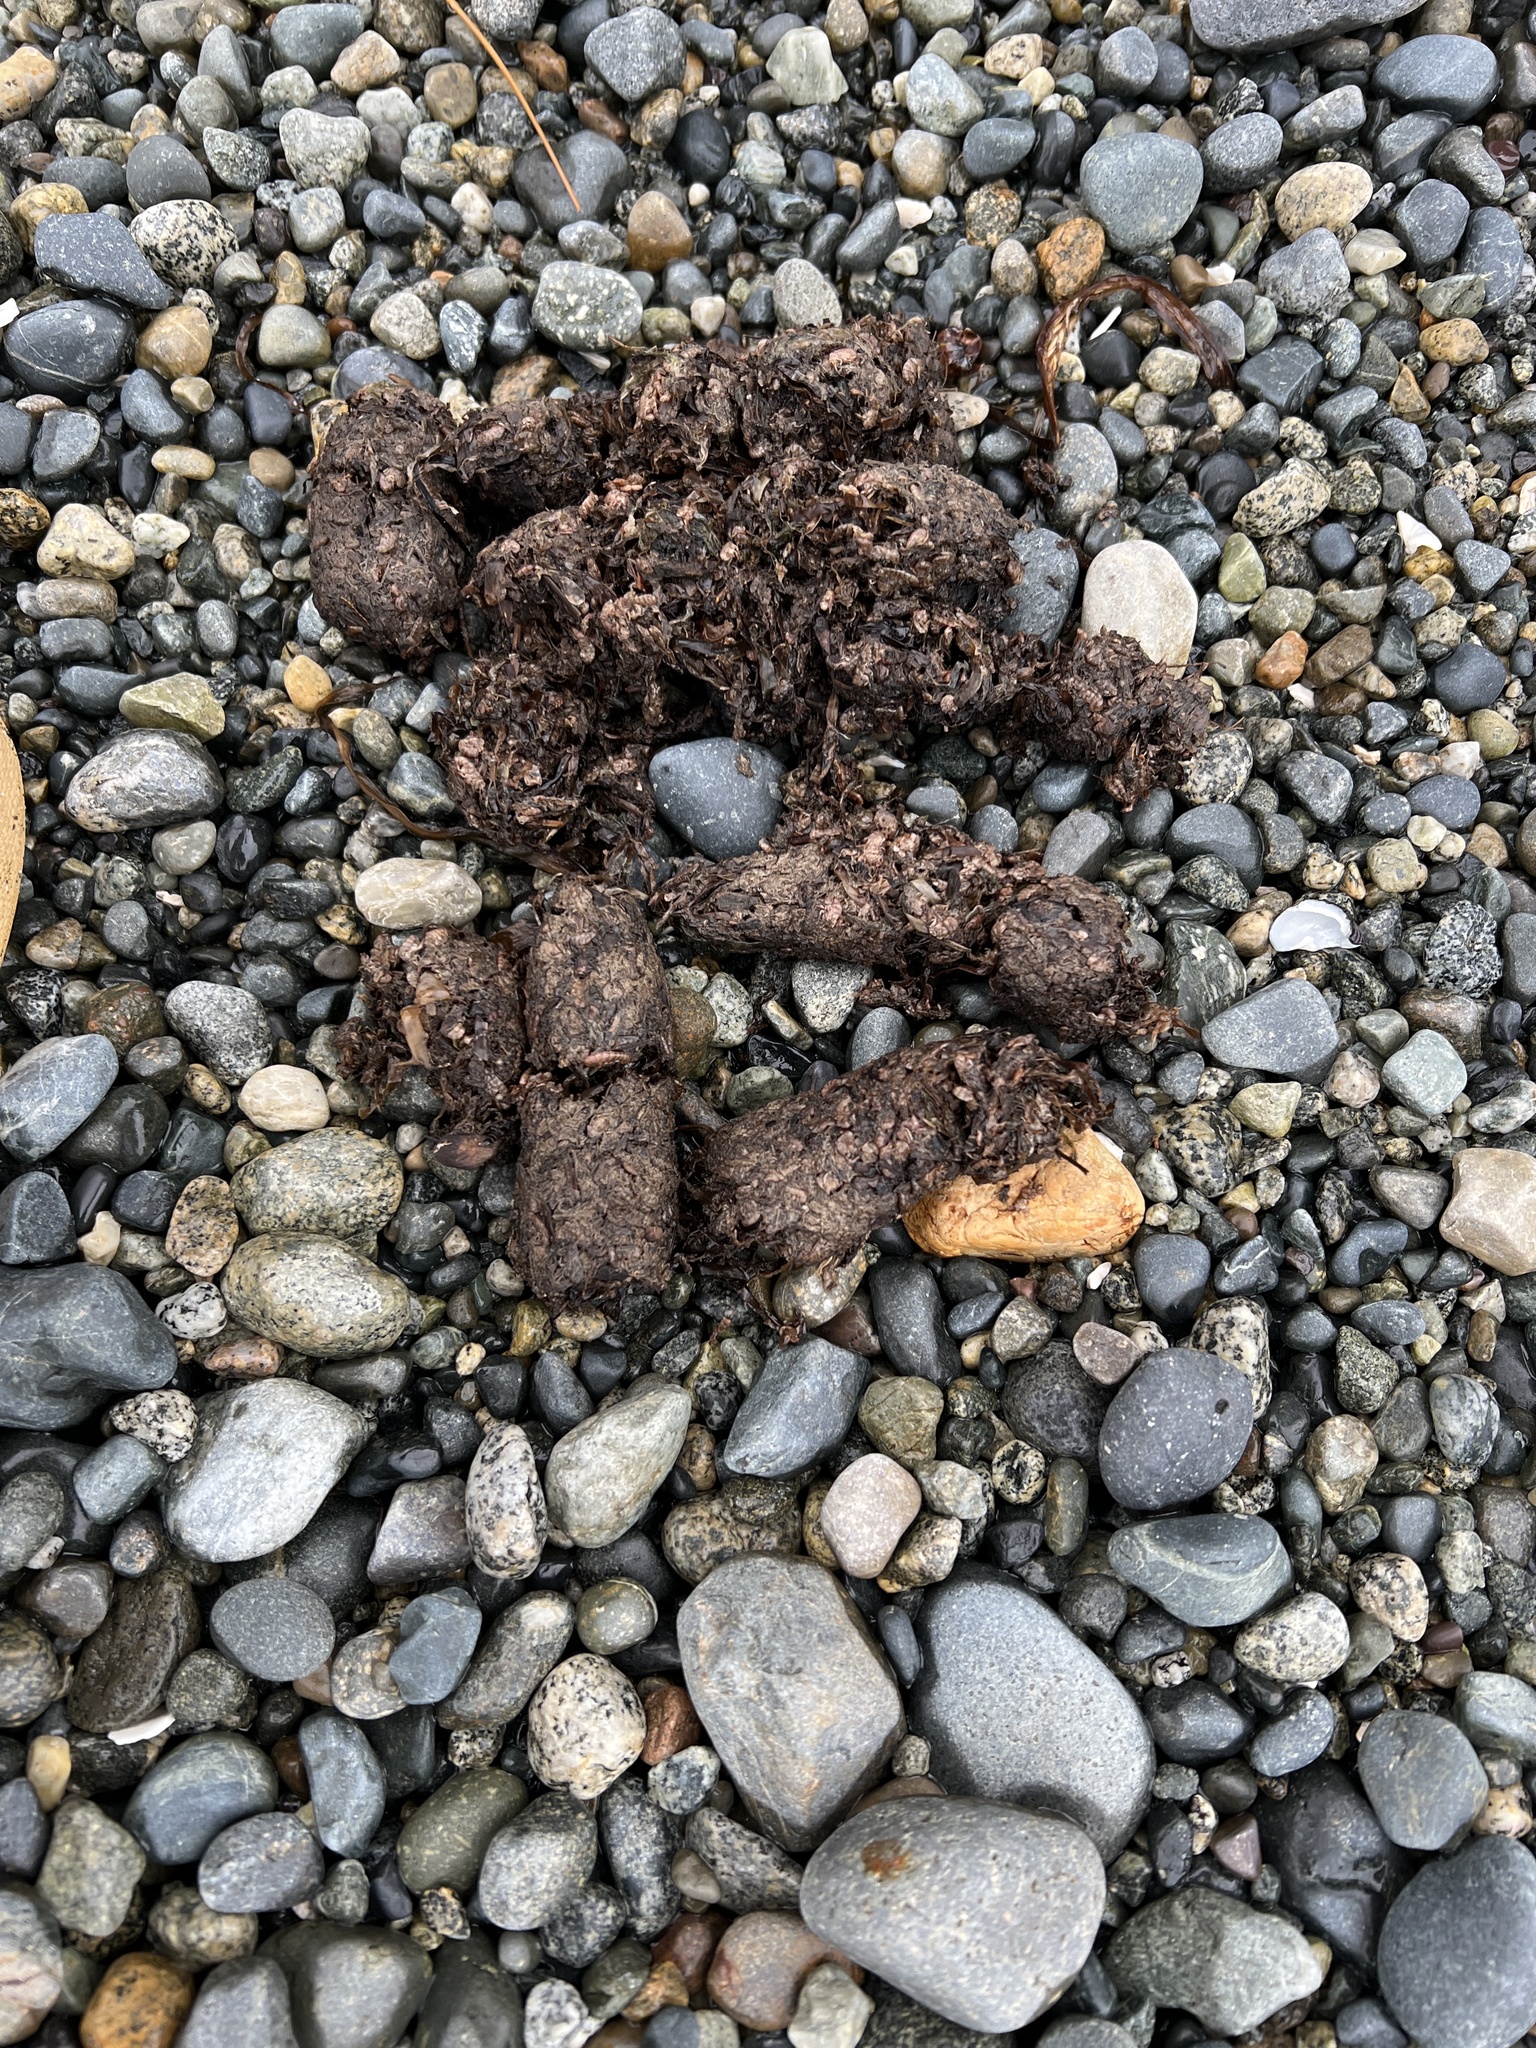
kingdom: Animalia
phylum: Chordata
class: Mammalia
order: Carnivora
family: Ursidae
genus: Ursus
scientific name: Ursus americanus
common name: American black bear
